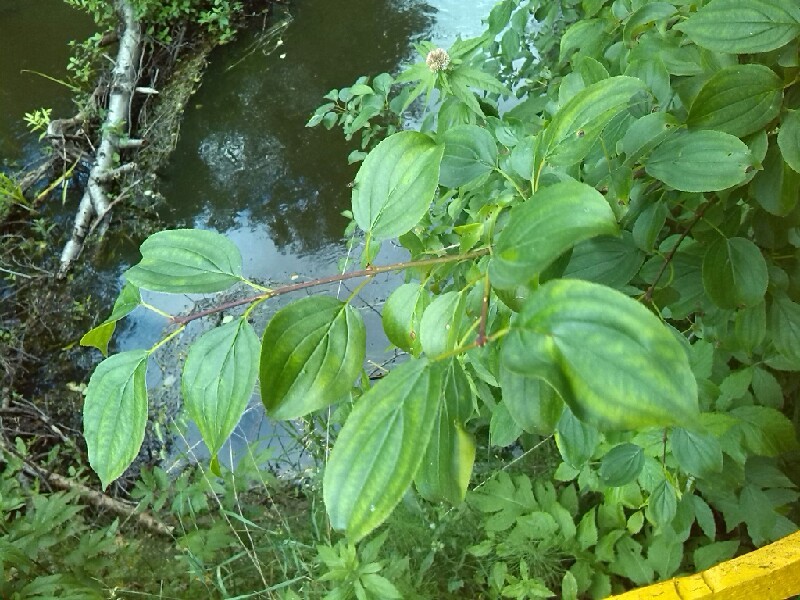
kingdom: Plantae
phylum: Tracheophyta
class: Magnoliopsida
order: Rosales
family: Rhamnaceae
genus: Rhamnus
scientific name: Rhamnus cathartica
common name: Common buckthorn
